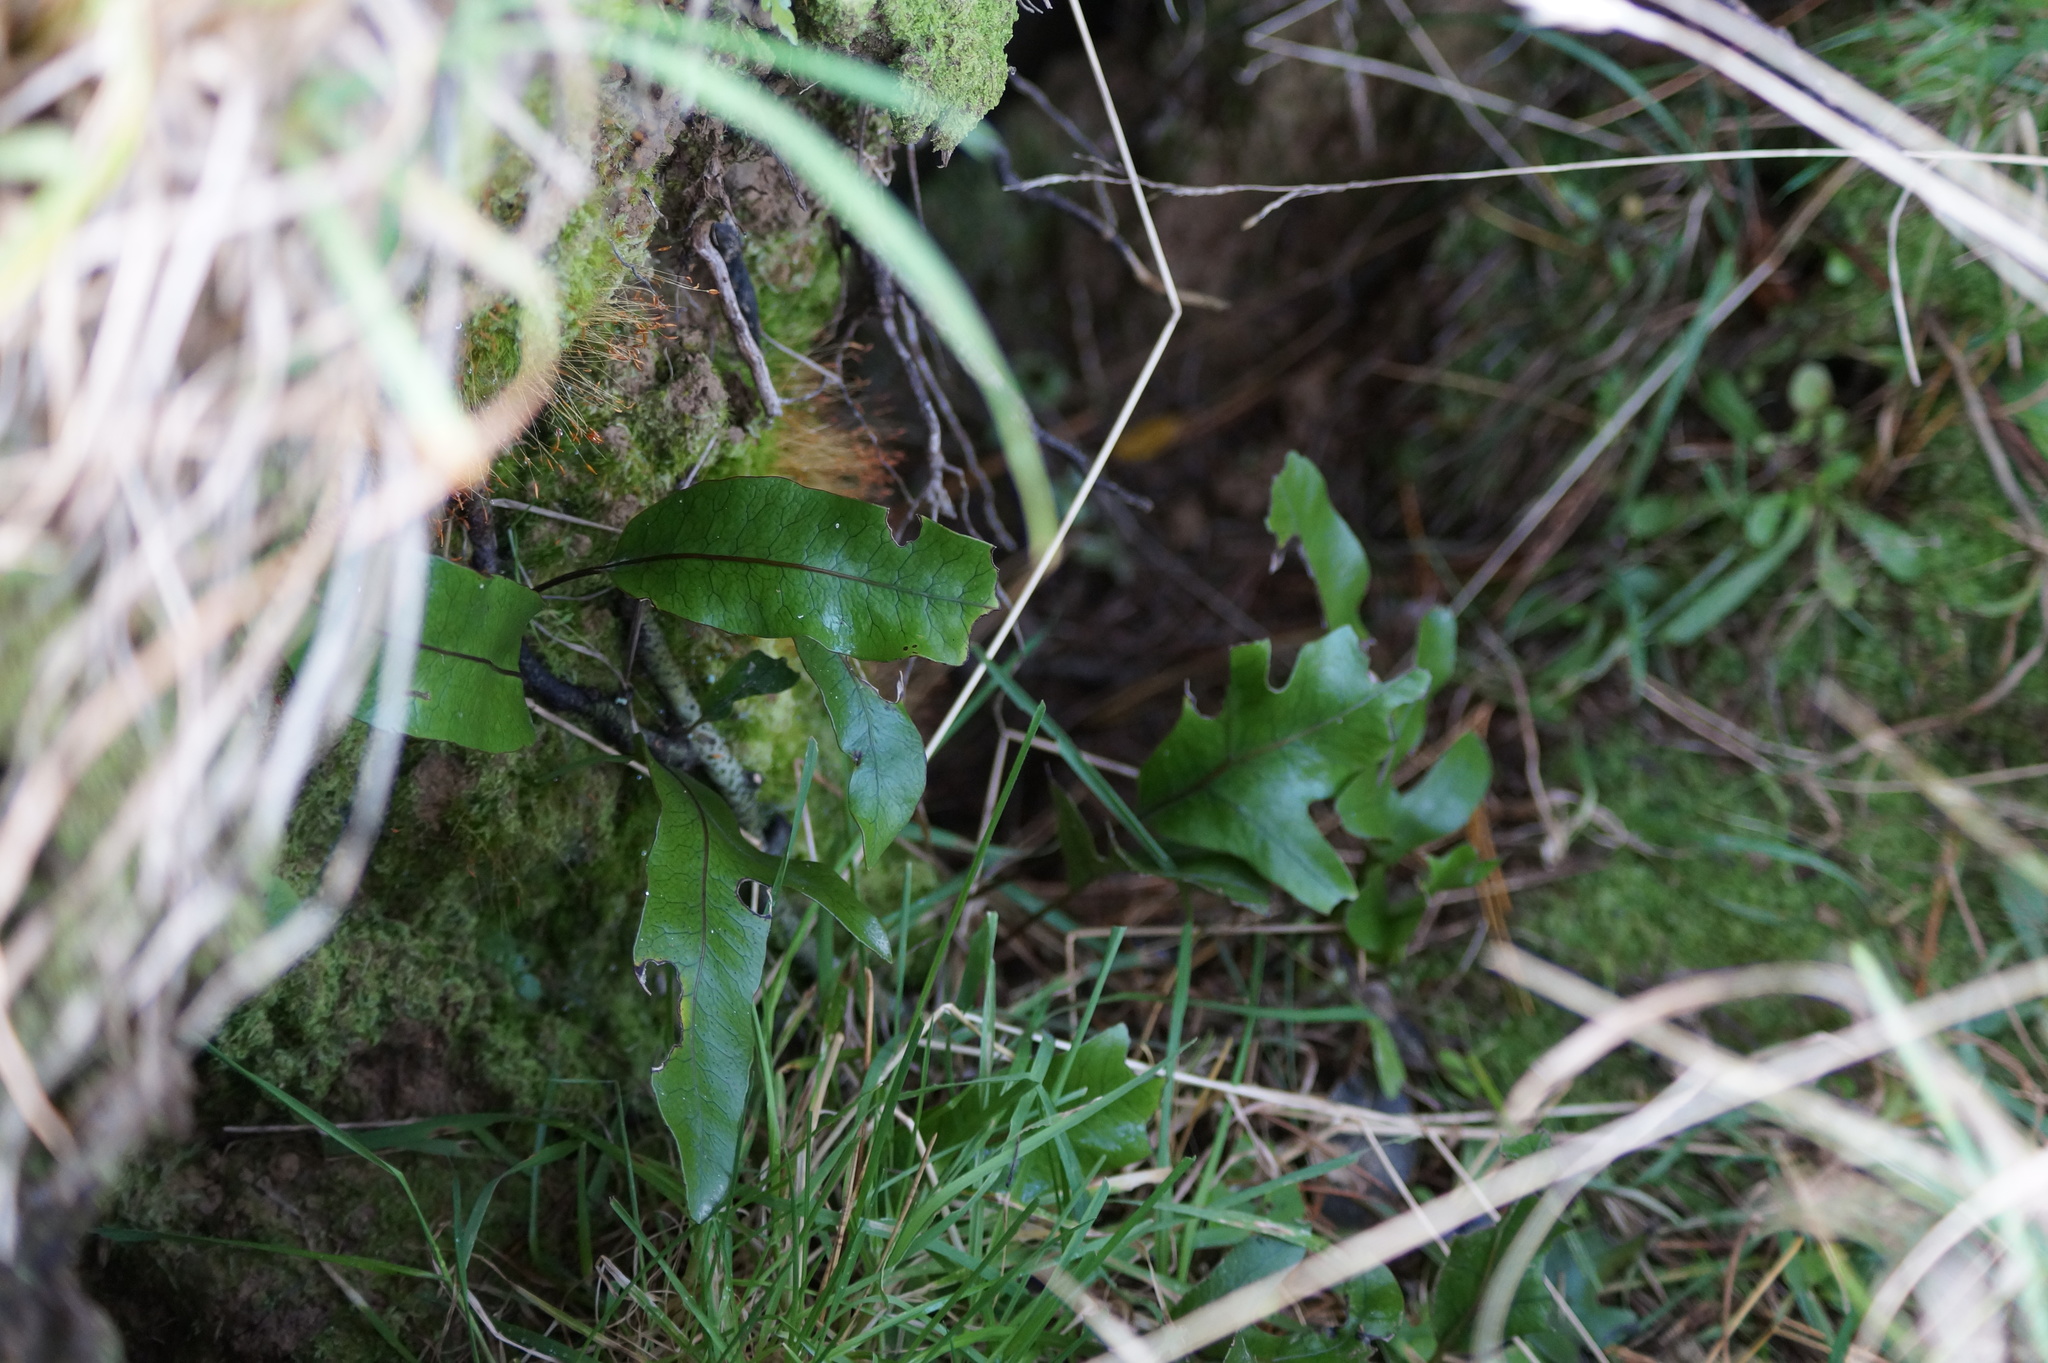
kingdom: Plantae
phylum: Tracheophyta
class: Polypodiopsida
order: Polypodiales
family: Polypodiaceae
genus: Lecanopteris
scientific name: Lecanopteris pustulata
